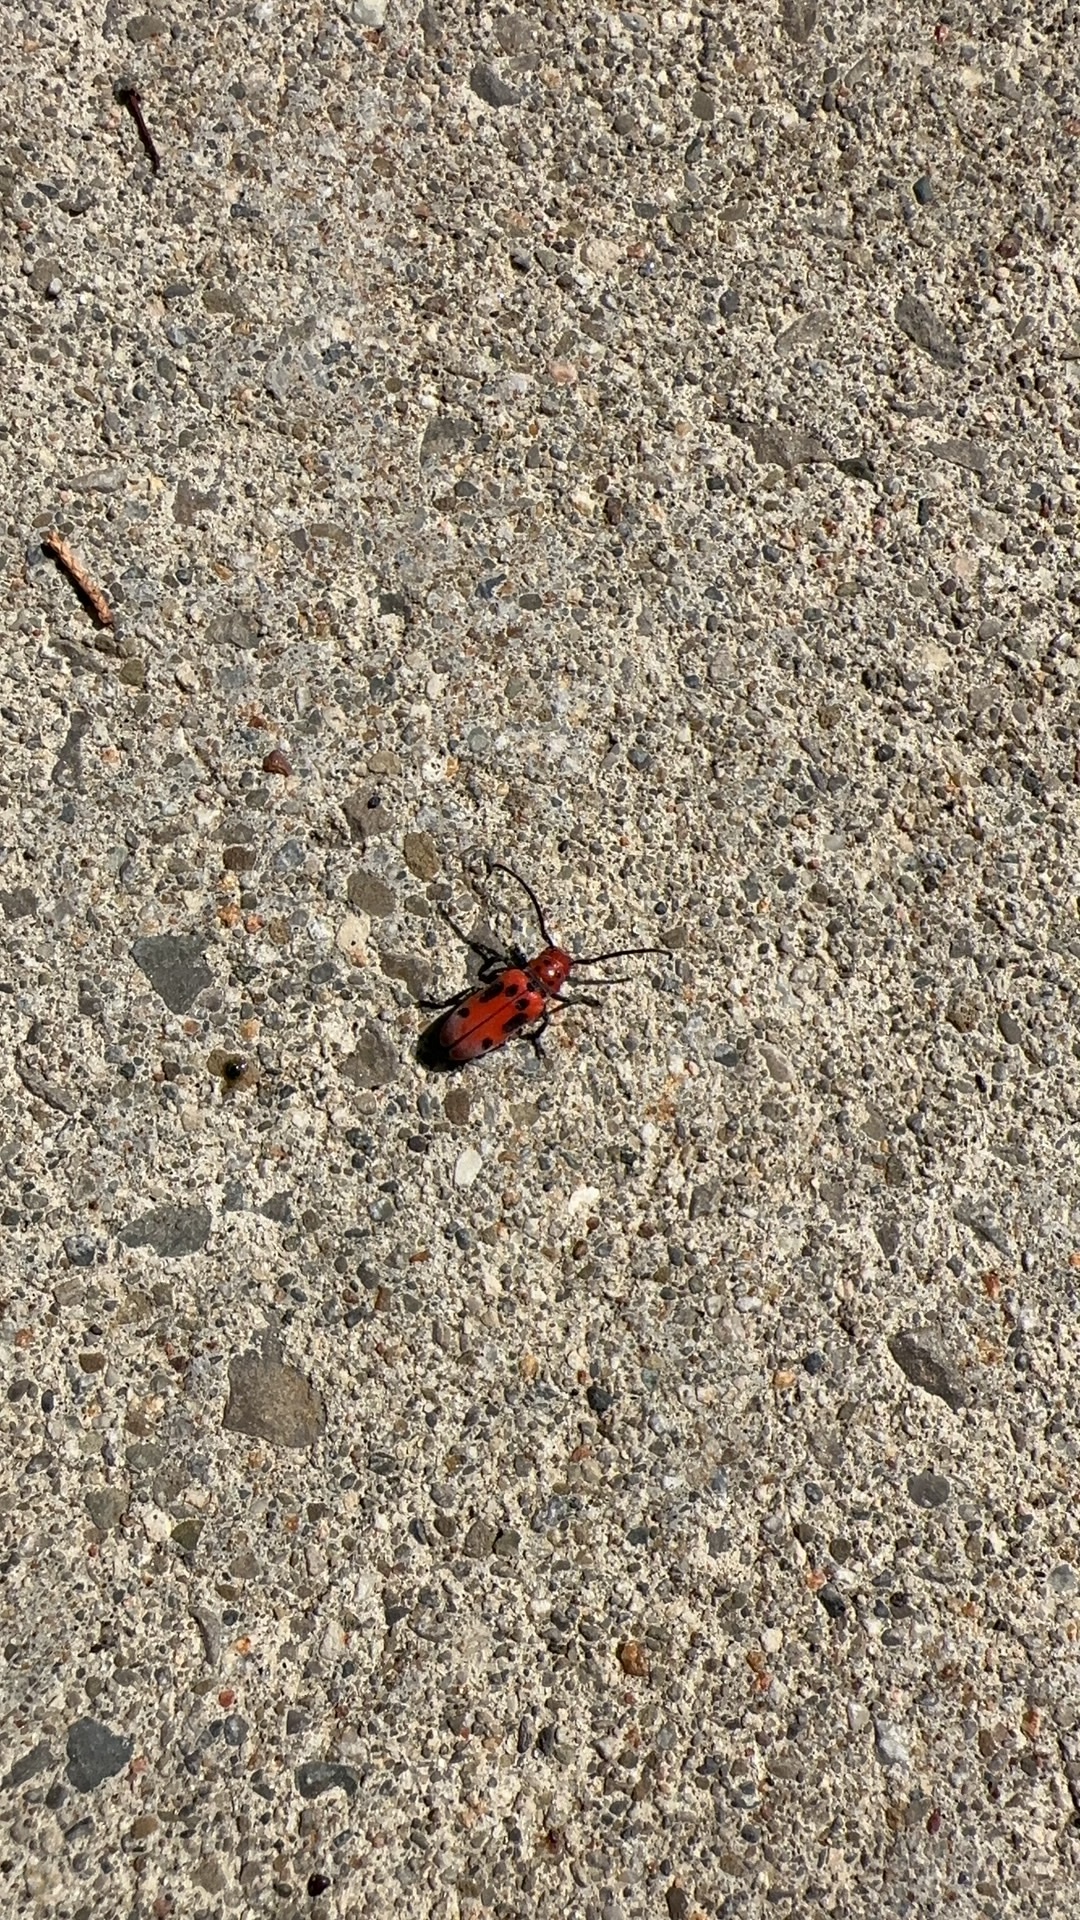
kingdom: Animalia
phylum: Arthropoda
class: Insecta
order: Coleoptera
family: Cerambycidae
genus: Tetraopes
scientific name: Tetraopes tetrophthalmus
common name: Red milkweed beetle
